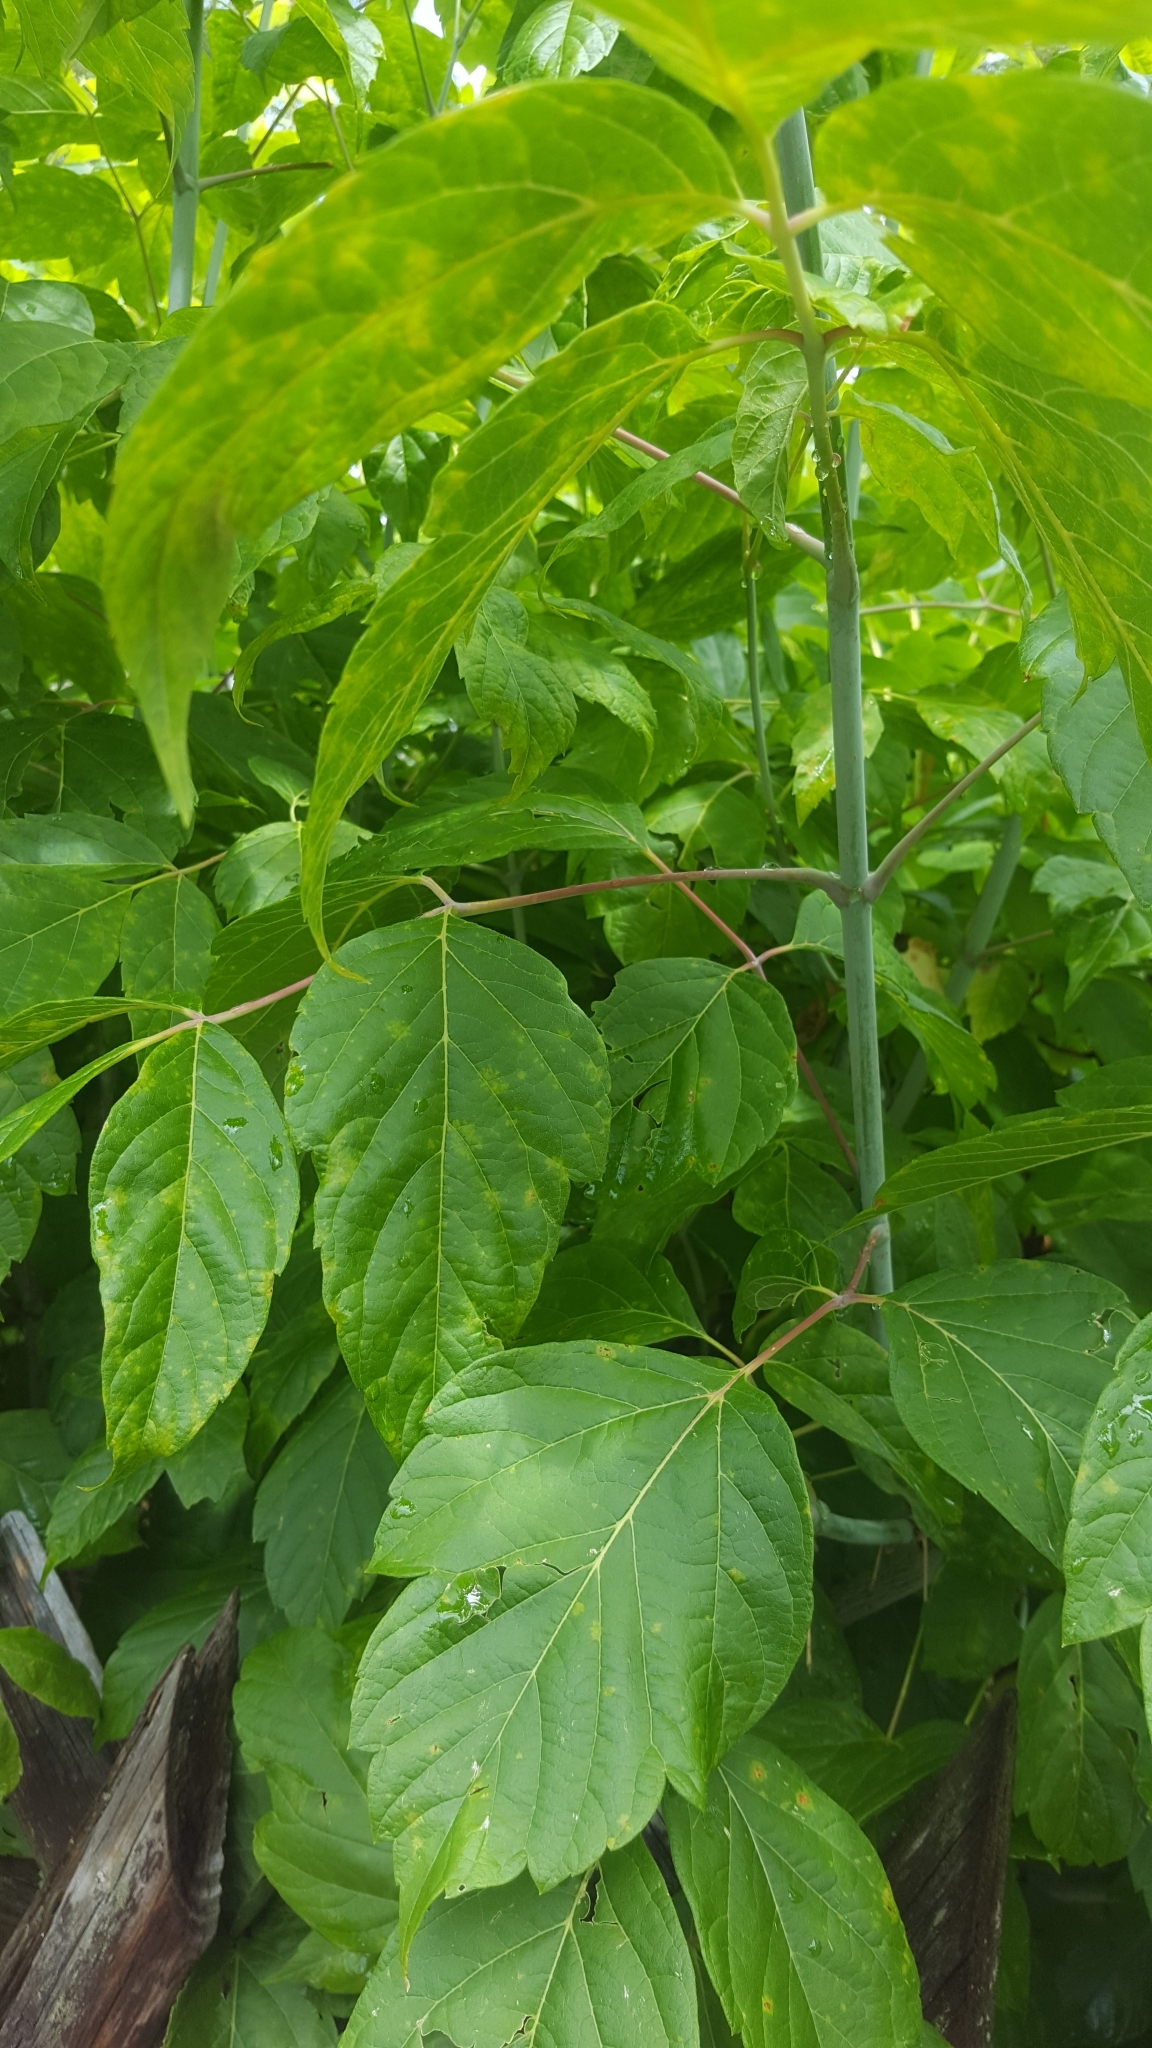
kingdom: Plantae
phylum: Tracheophyta
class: Magnoliopsida
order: Sapindales
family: Sapindaceae
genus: Acer
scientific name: Acer negundo
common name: Ashleaf maple
